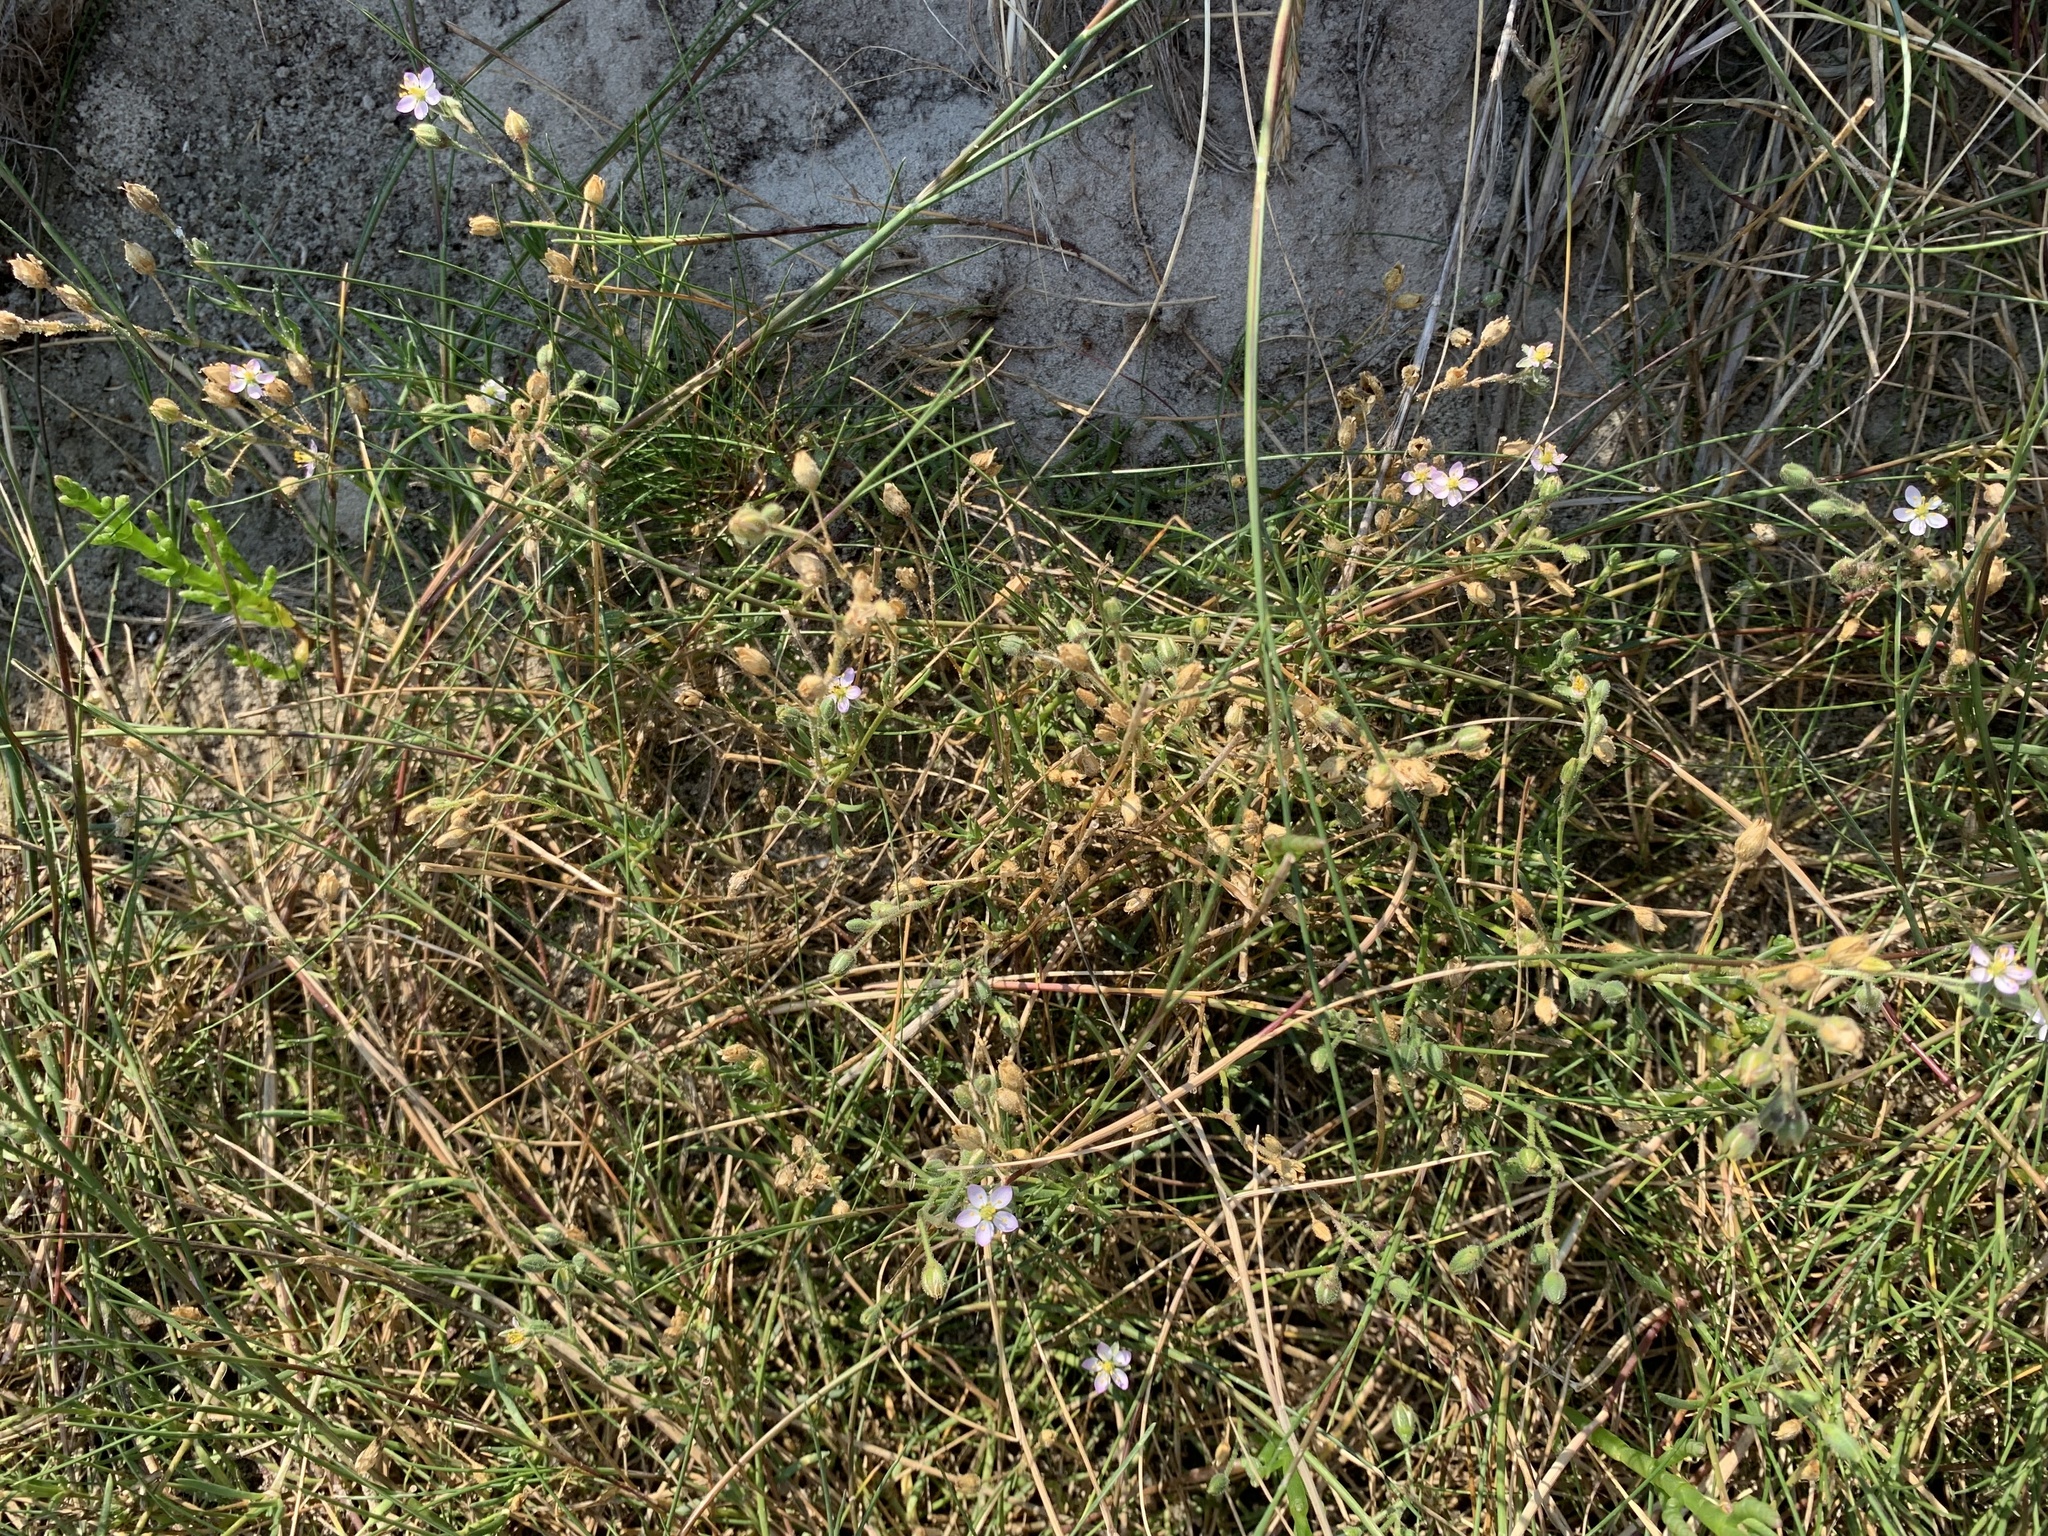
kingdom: Plantae
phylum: Tracheophyta
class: Magnoliopsida
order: Caryophyllales
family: Caryophyllaceae
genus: Spergularia
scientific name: Spergularia media
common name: Greater sea-spurrey
